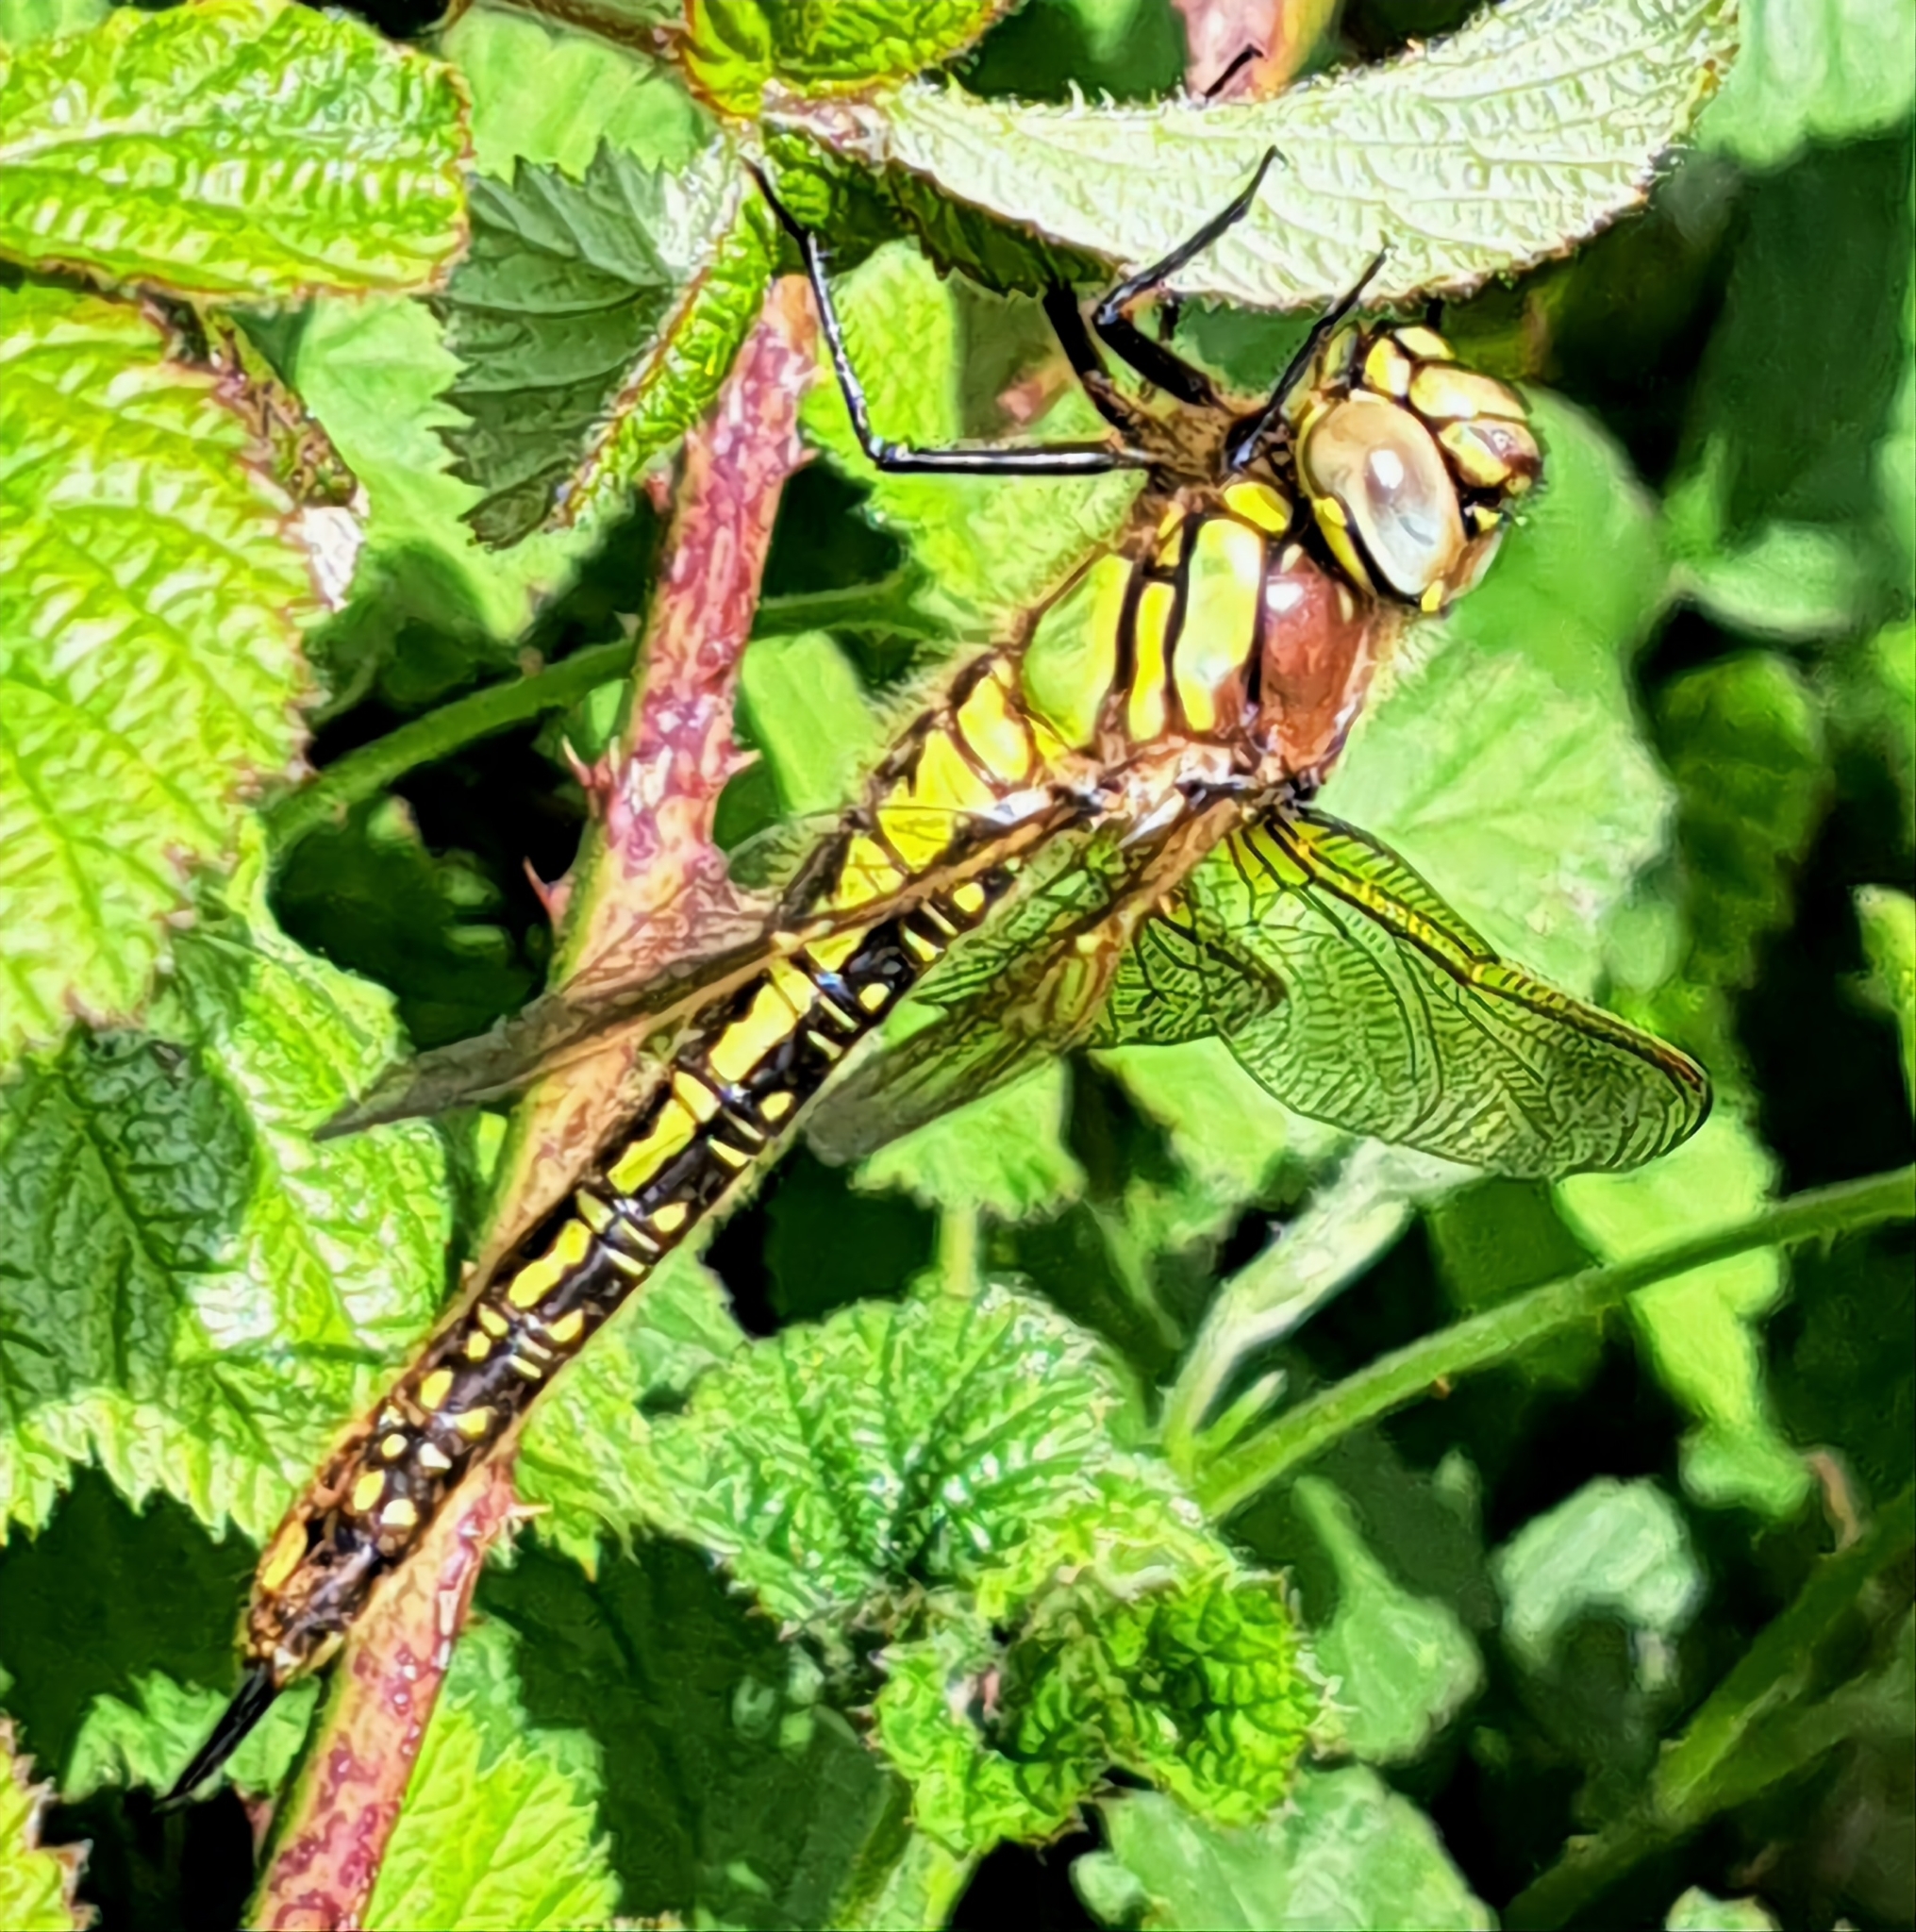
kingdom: Animalia
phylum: Arthropoda
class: Insecta
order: Odonata
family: Aeshnidae
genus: Brachytron
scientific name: Brachytron pratense
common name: Hairy hawker
